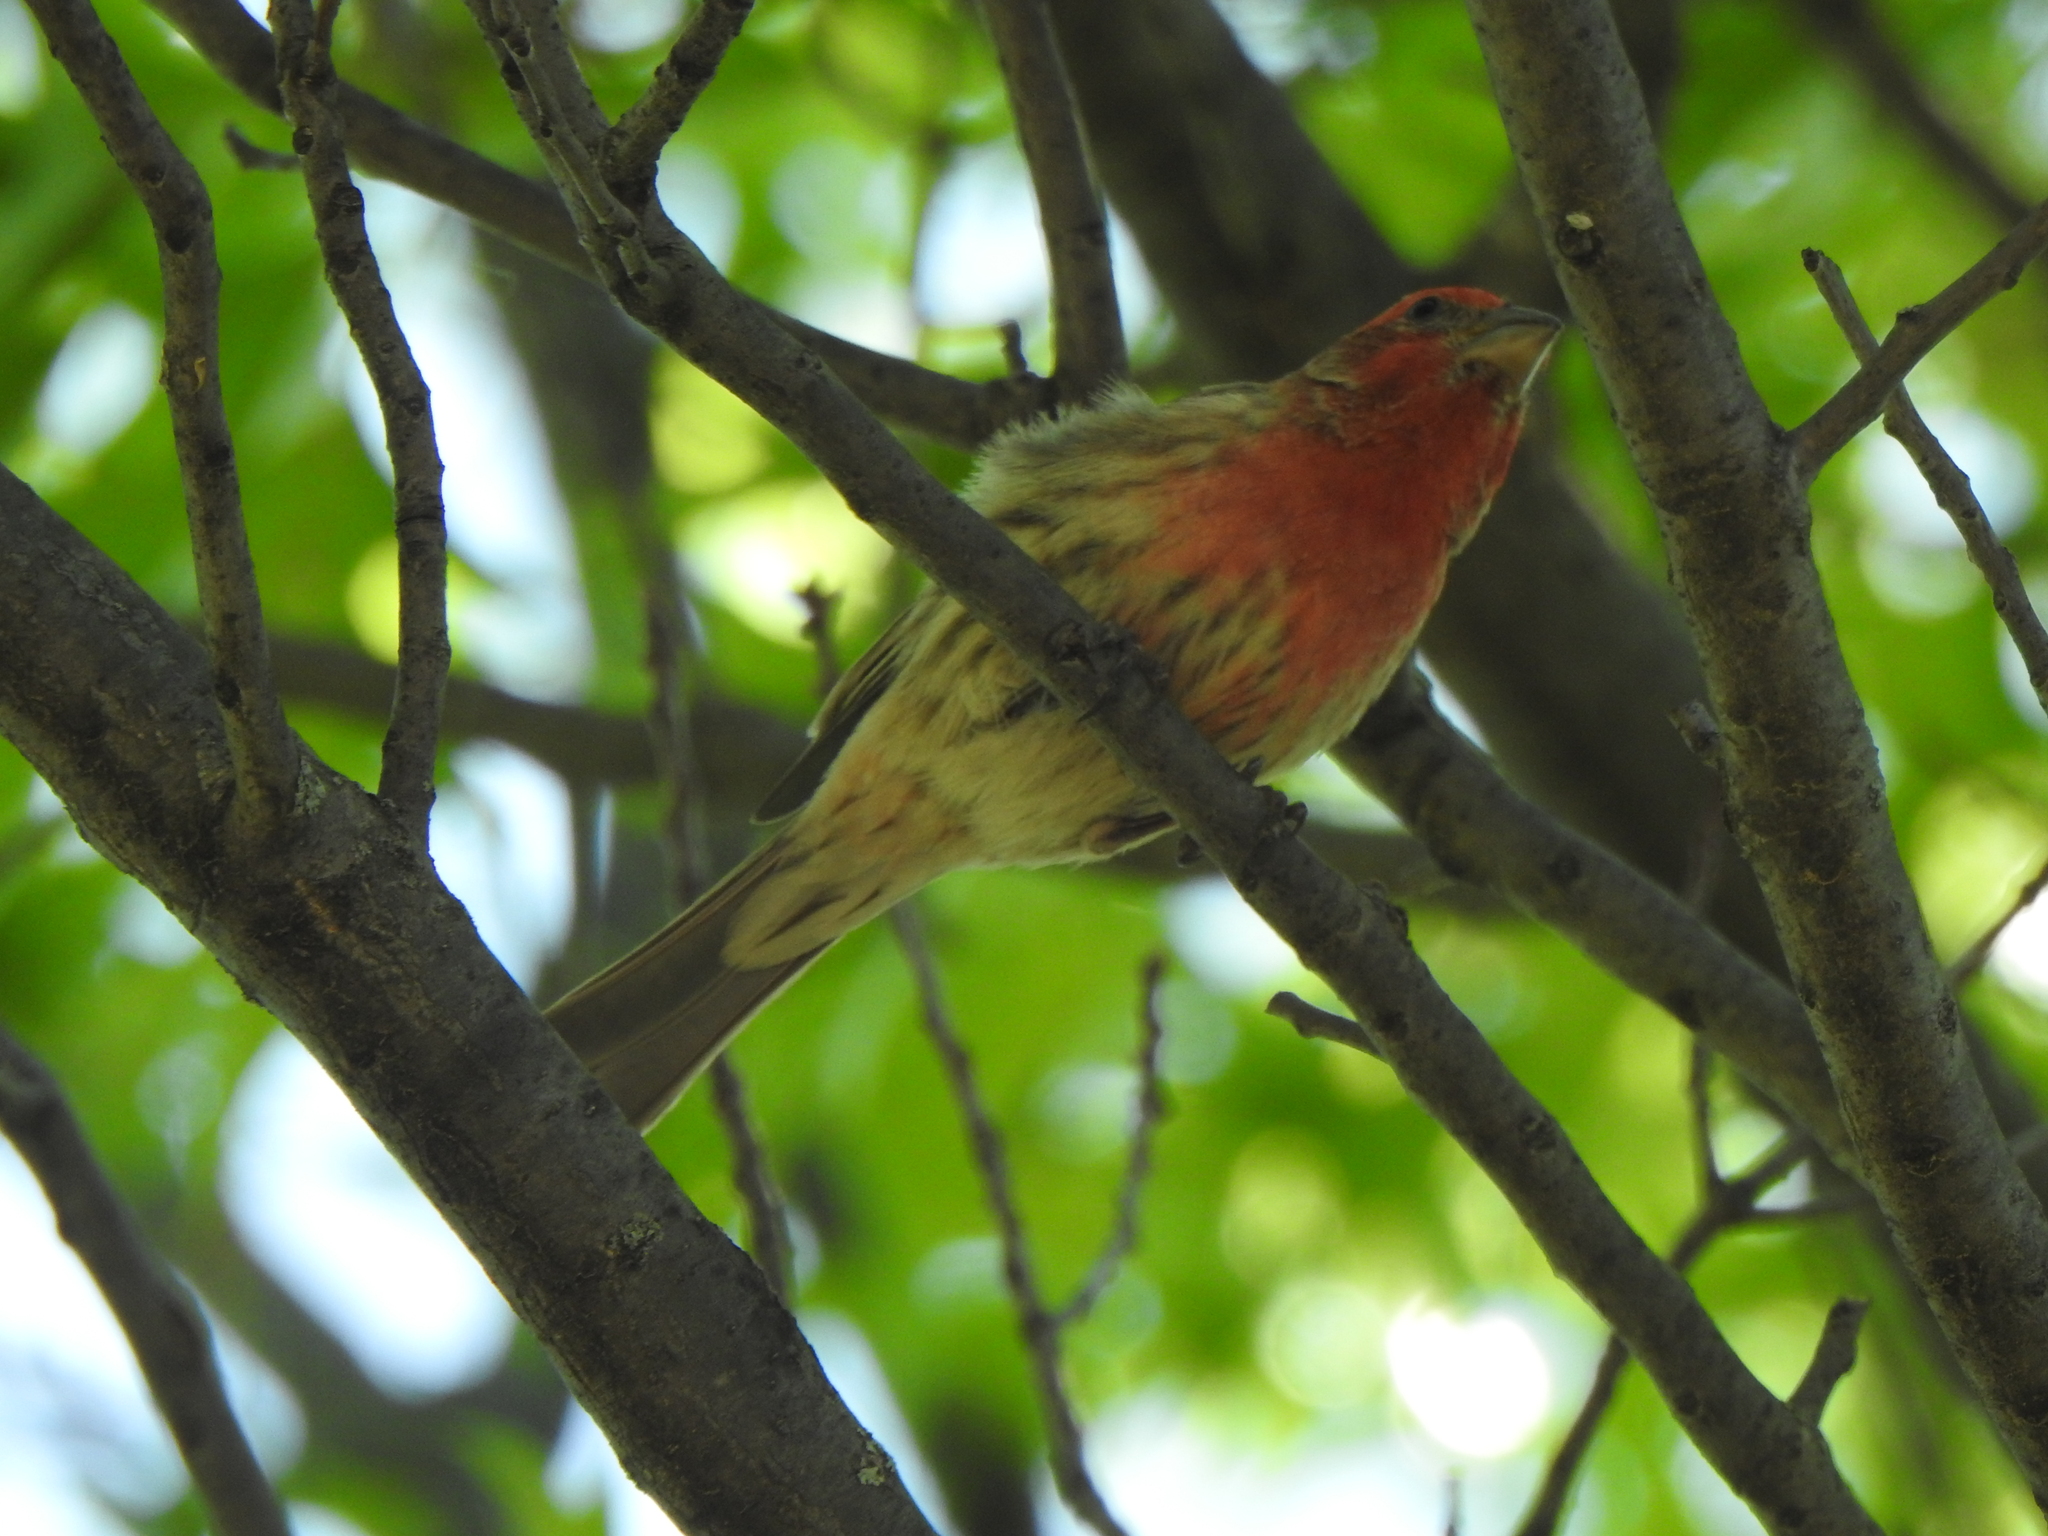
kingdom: Animalia
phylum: Chordata
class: Aves
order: Passeriformes
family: Fringillidae
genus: Haemorhous
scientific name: Haemorhous mexicanus
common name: House finch
